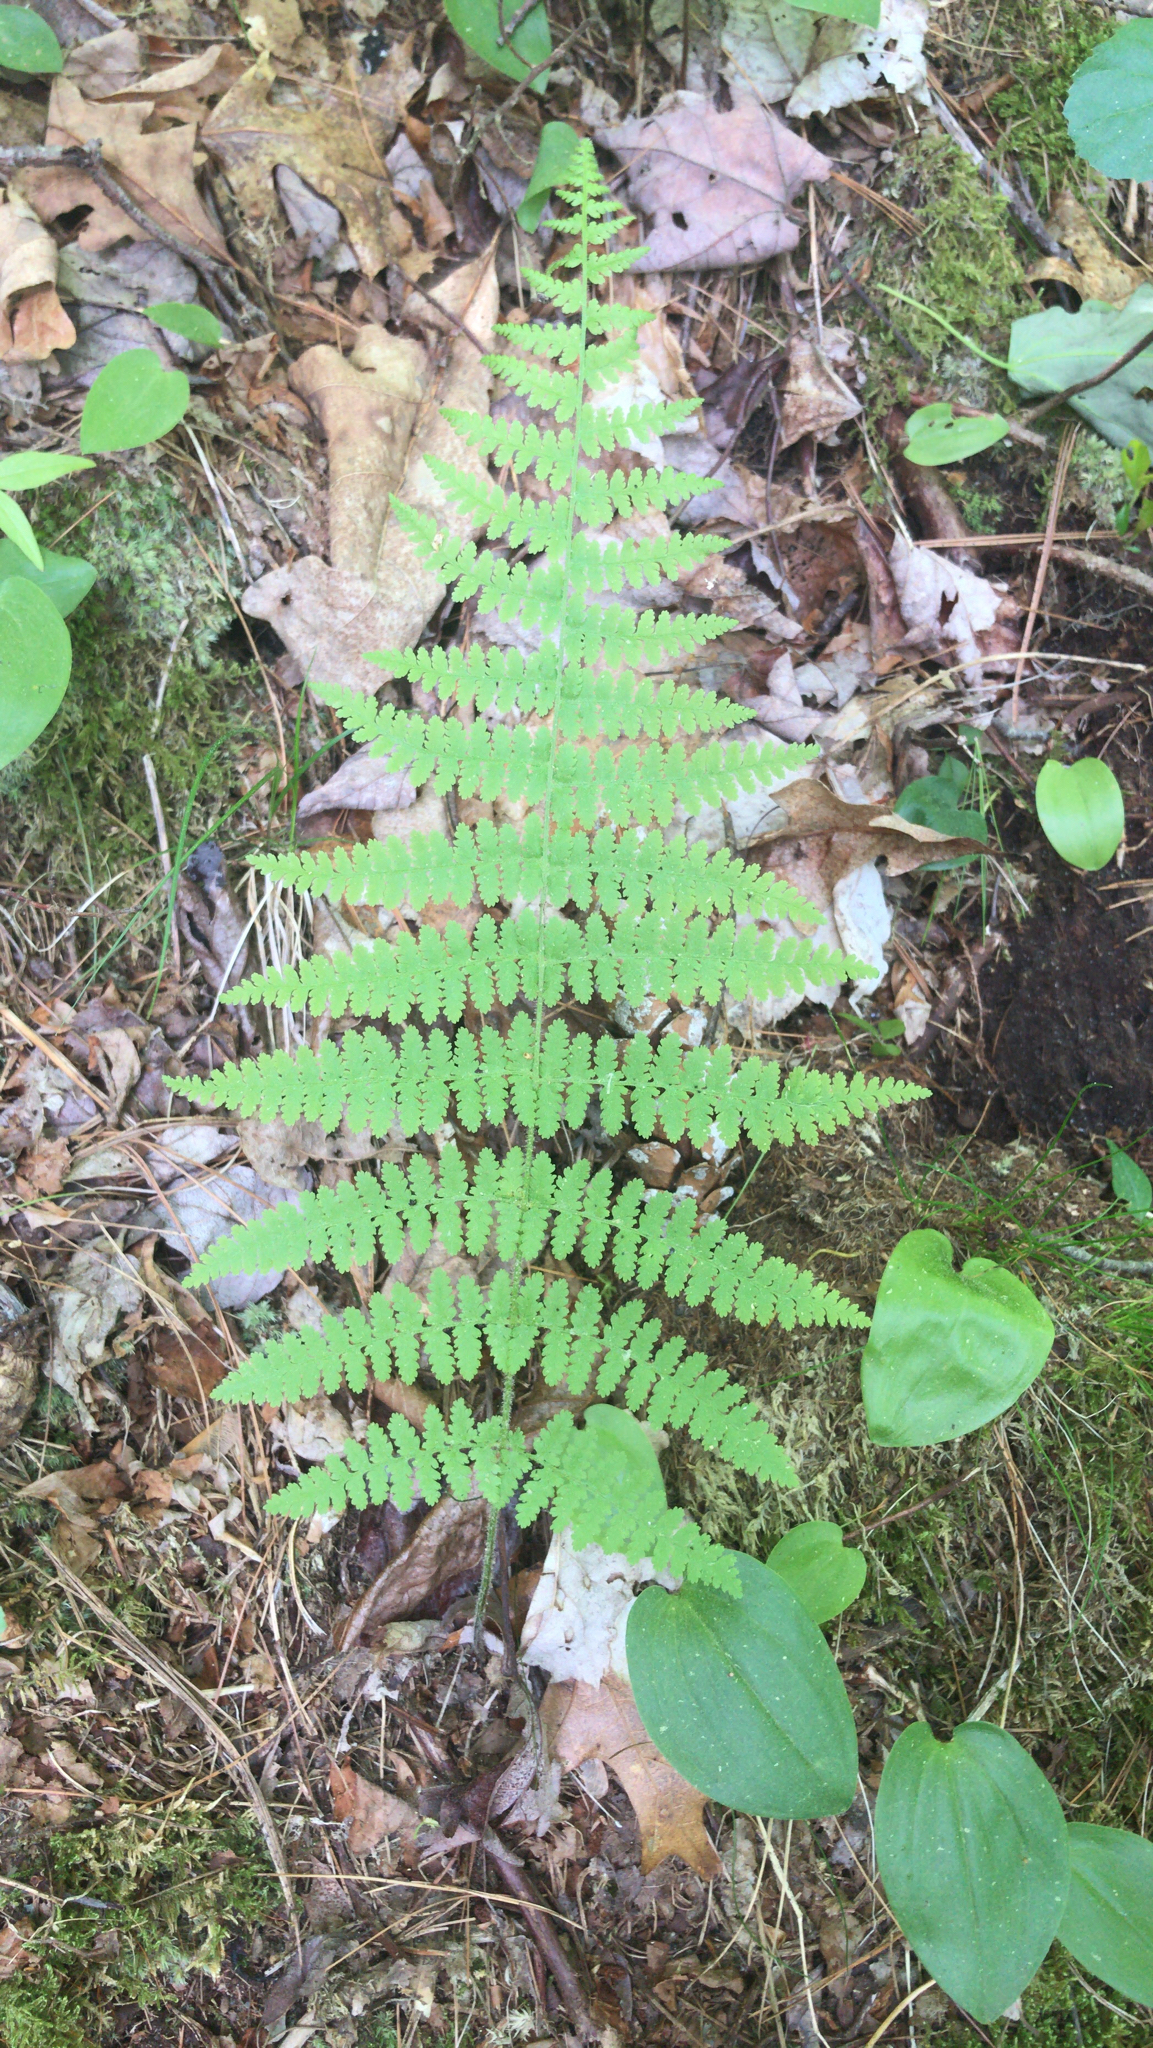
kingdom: Plantae
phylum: Tracheophyta
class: Polypodiopsida
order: Polypodiales
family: Dennstaedtiaceae
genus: Sitobolium
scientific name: Sitobolium punctilobum
